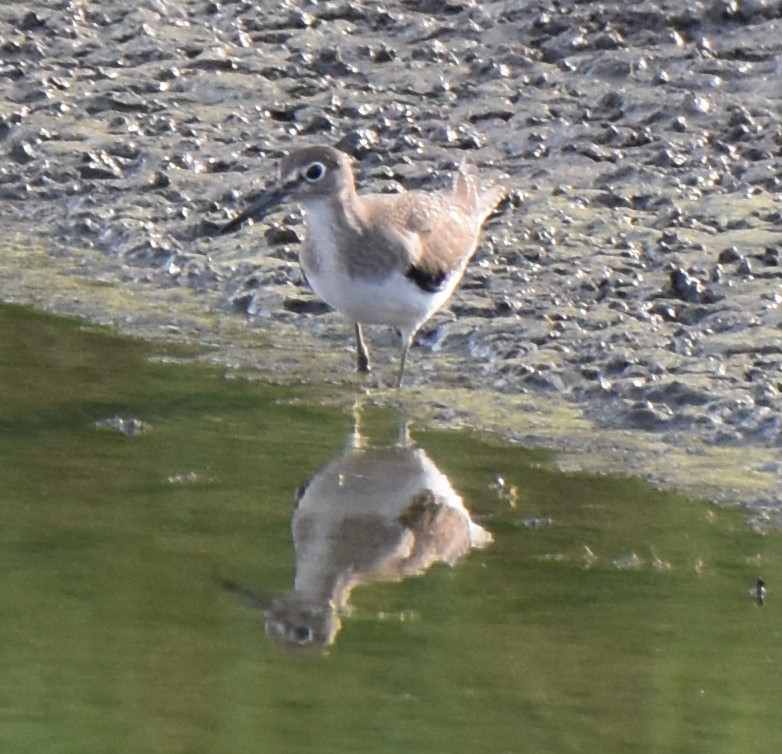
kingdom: Animalia
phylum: Chordata
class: Aves
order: Charadriiformes
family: Scolopacidae
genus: Tringa
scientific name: Tringa solitaria
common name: Solitary sandpiper
